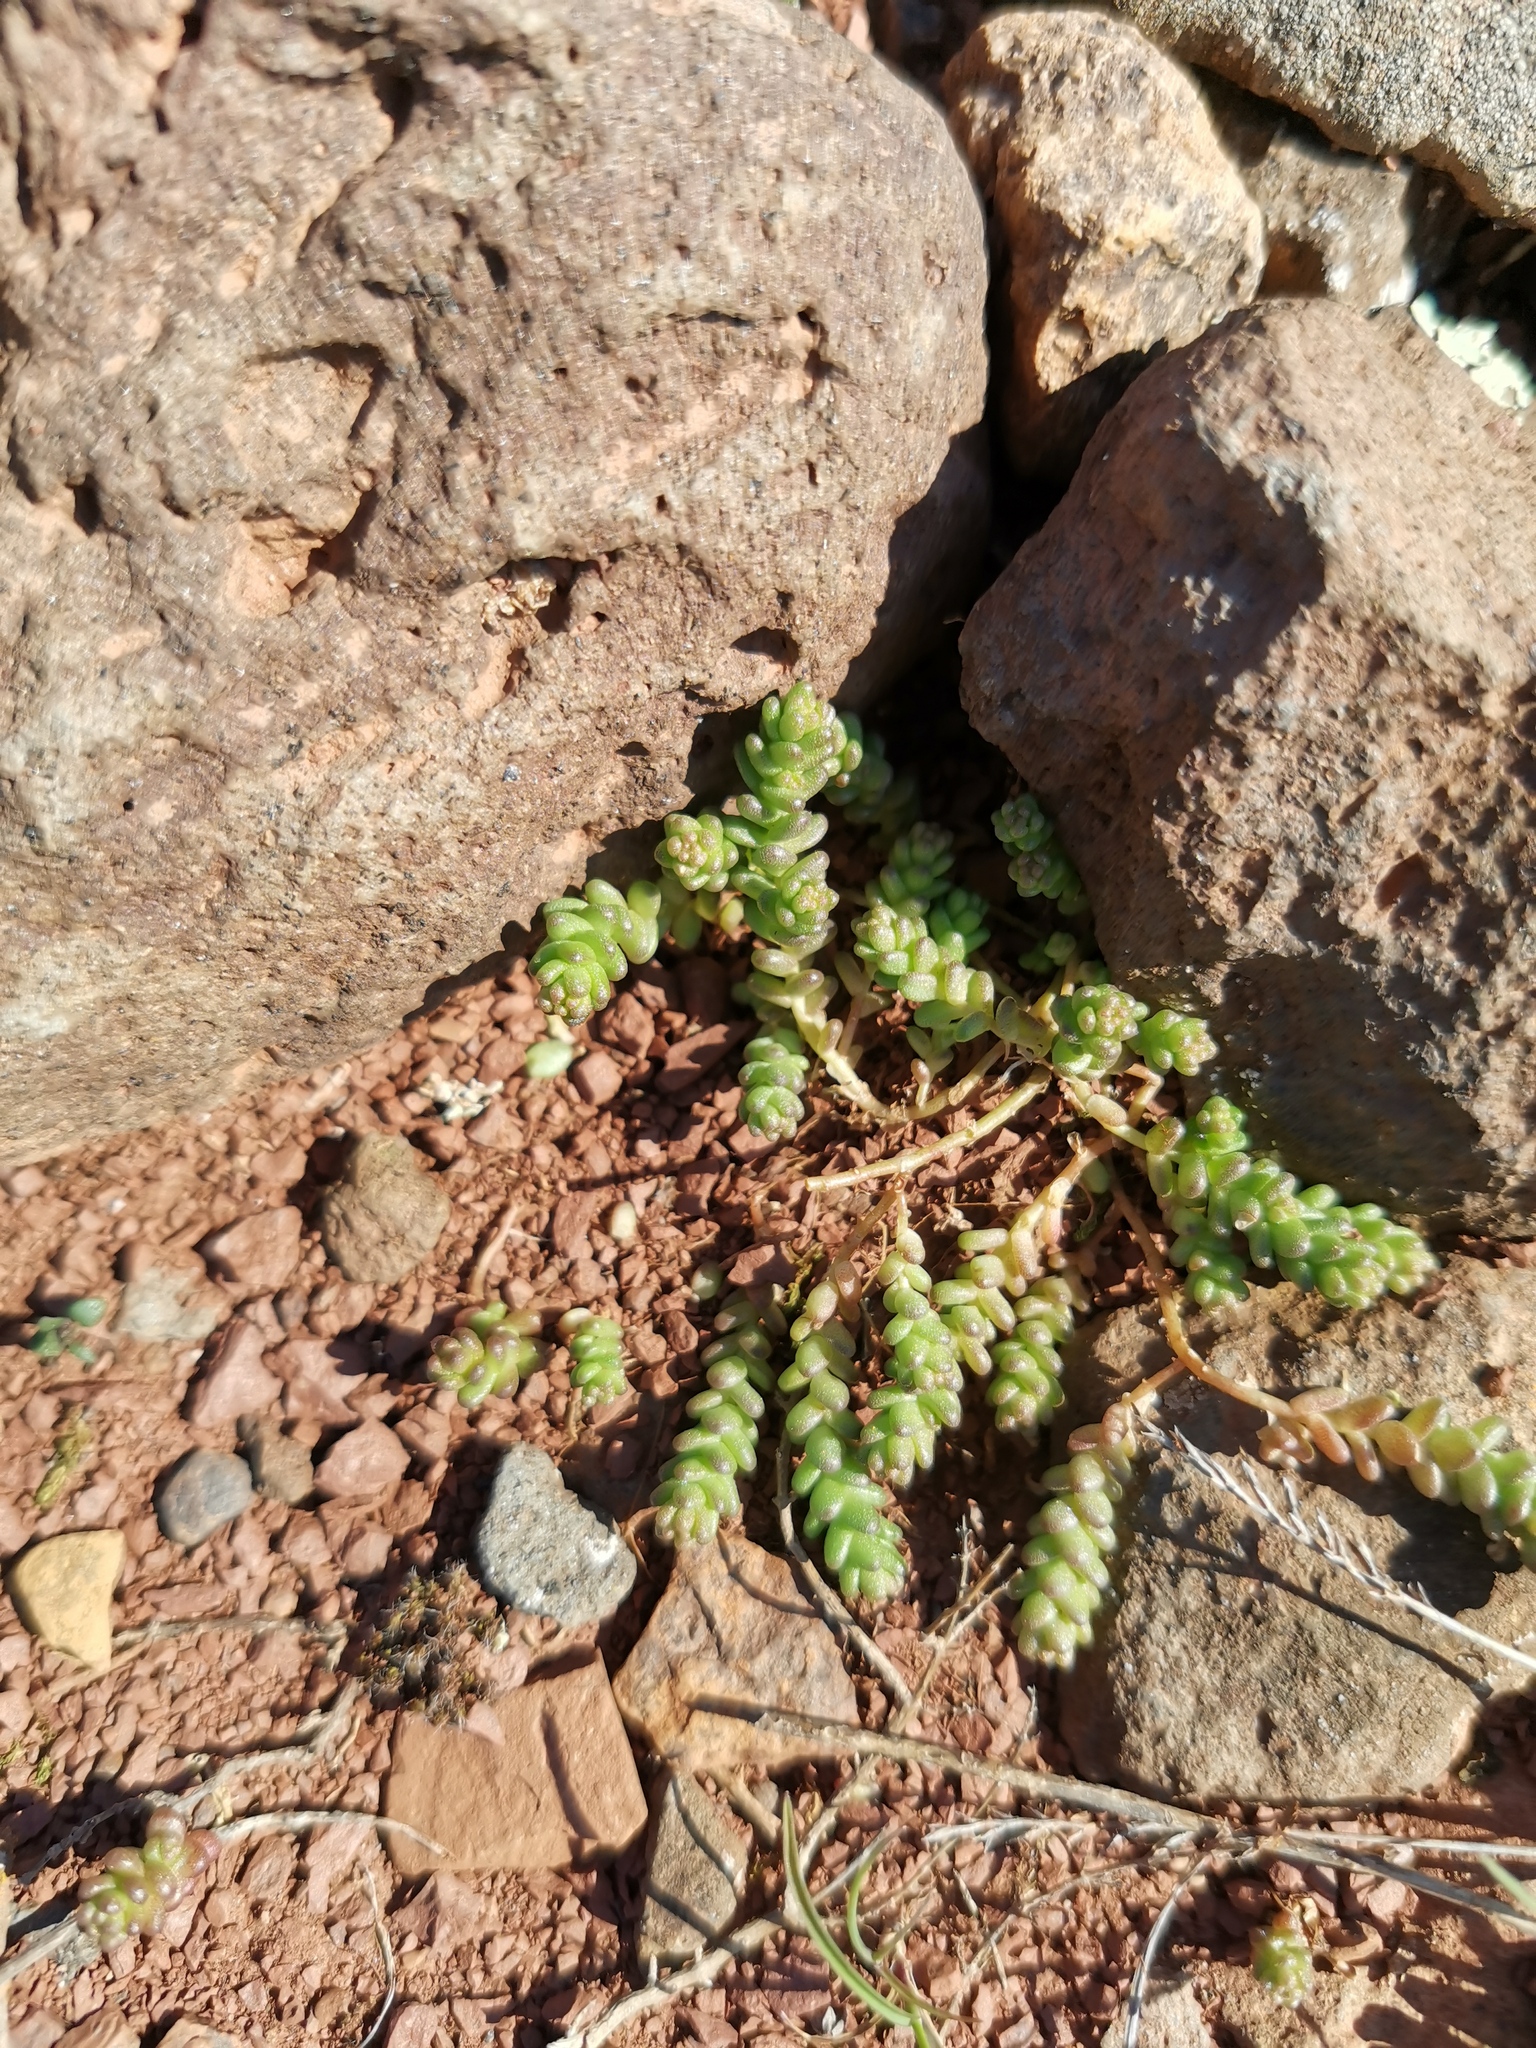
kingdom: Plantae
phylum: Tracheophyta
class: Magnoliopsida
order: Saxifragales
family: Crassulaceae
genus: Sedum
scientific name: Sedum acre
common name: Biting stonecrop
